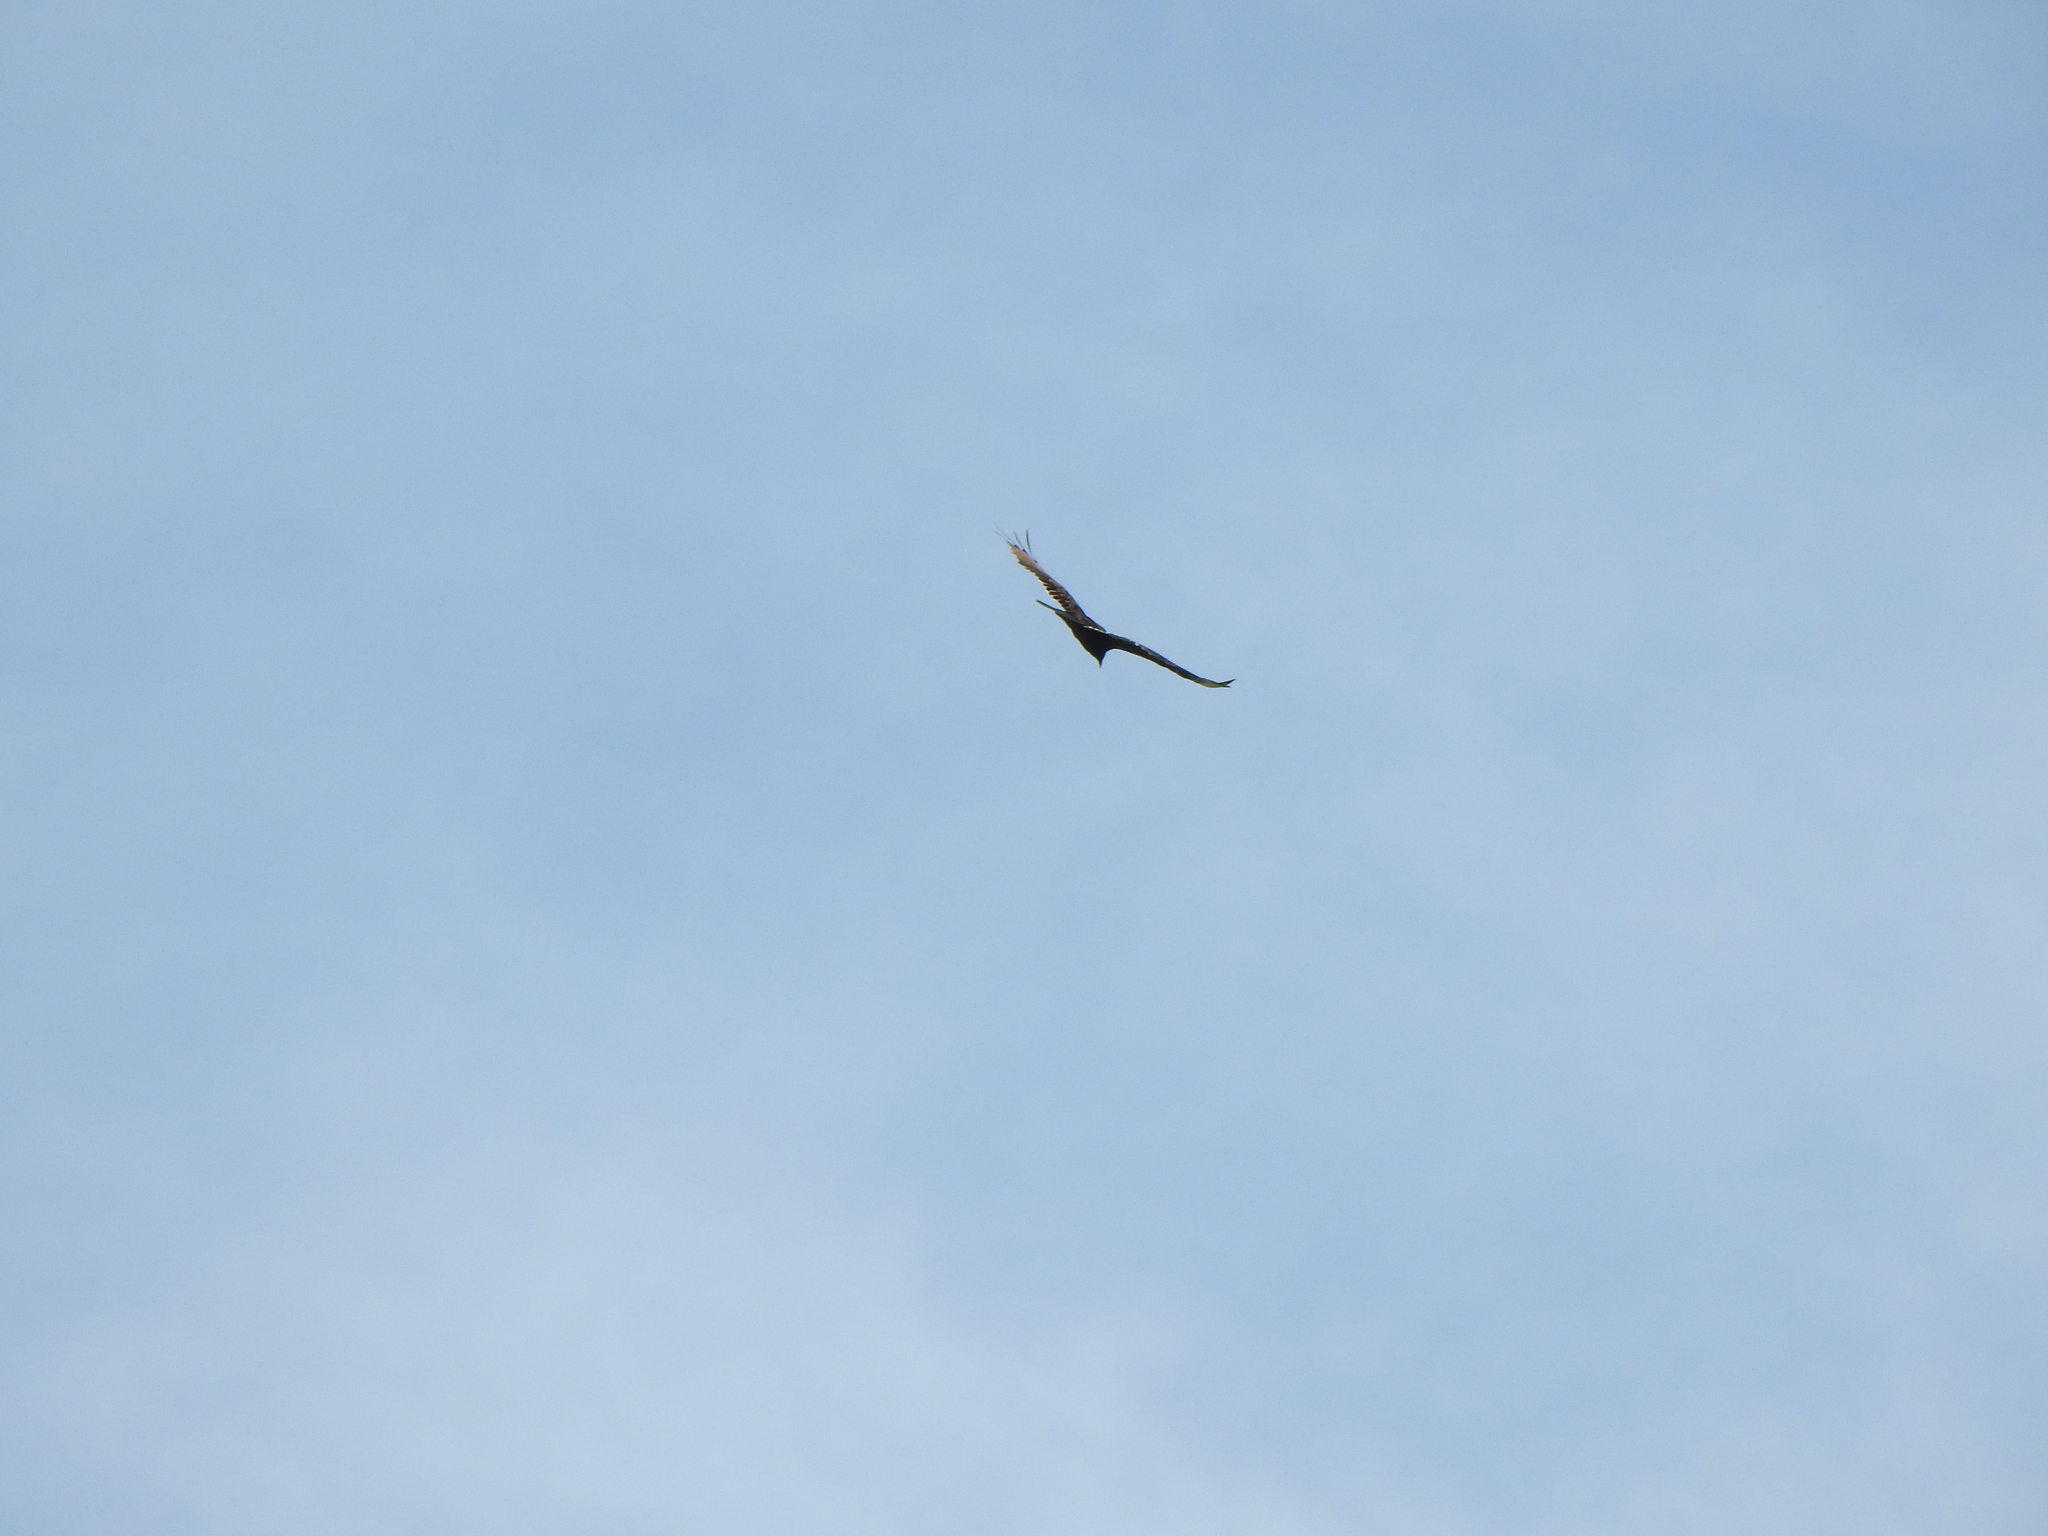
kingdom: Animalia
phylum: Chordata
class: Aves
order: Accipitriformes
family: Cathartidae
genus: Cathartes
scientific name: Cathartes aura
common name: Turkey vulture
